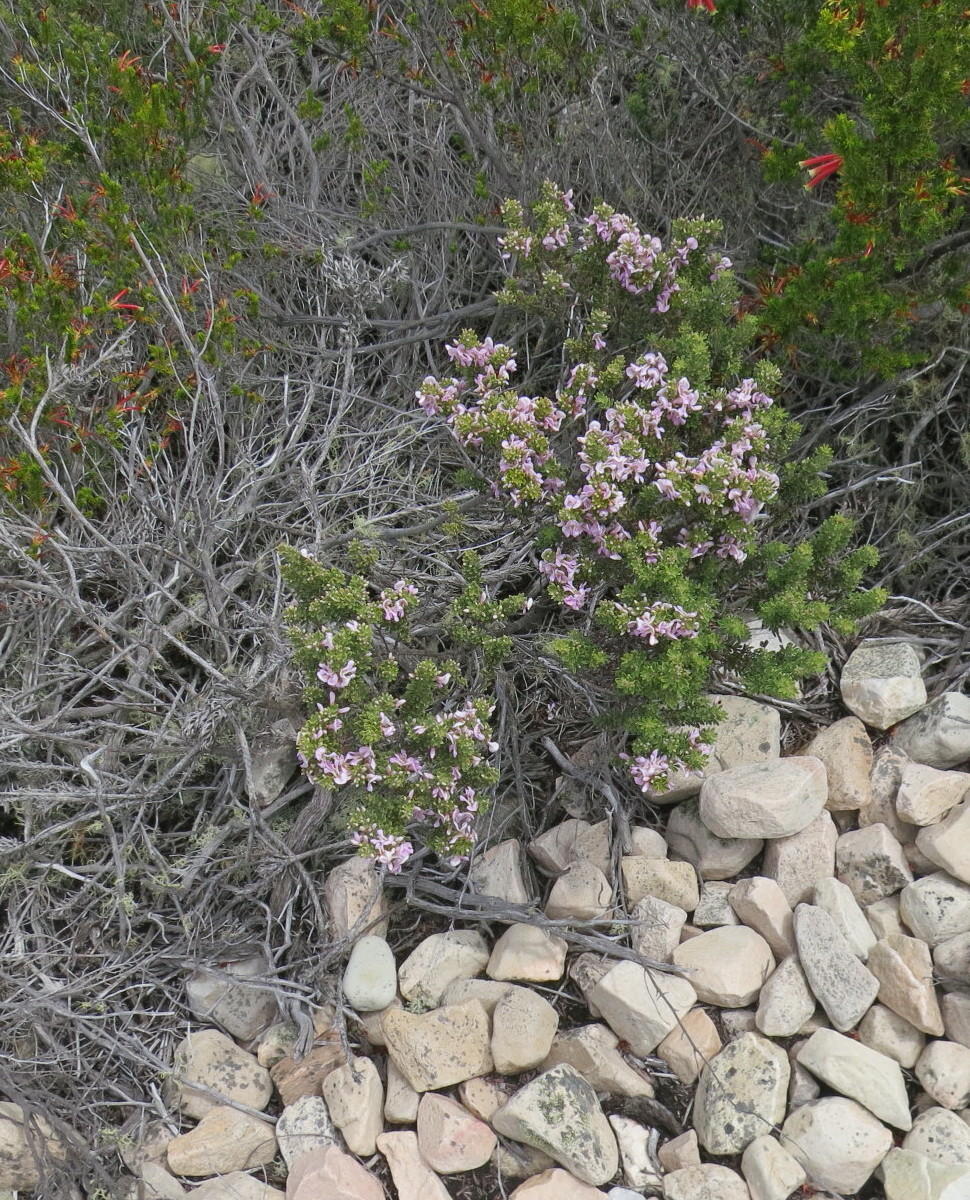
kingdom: Plantae
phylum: Tracheophyta
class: Magnoliopsida
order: Fabales
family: Fabaceae
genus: Indigofera
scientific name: Indigofera flabellata
